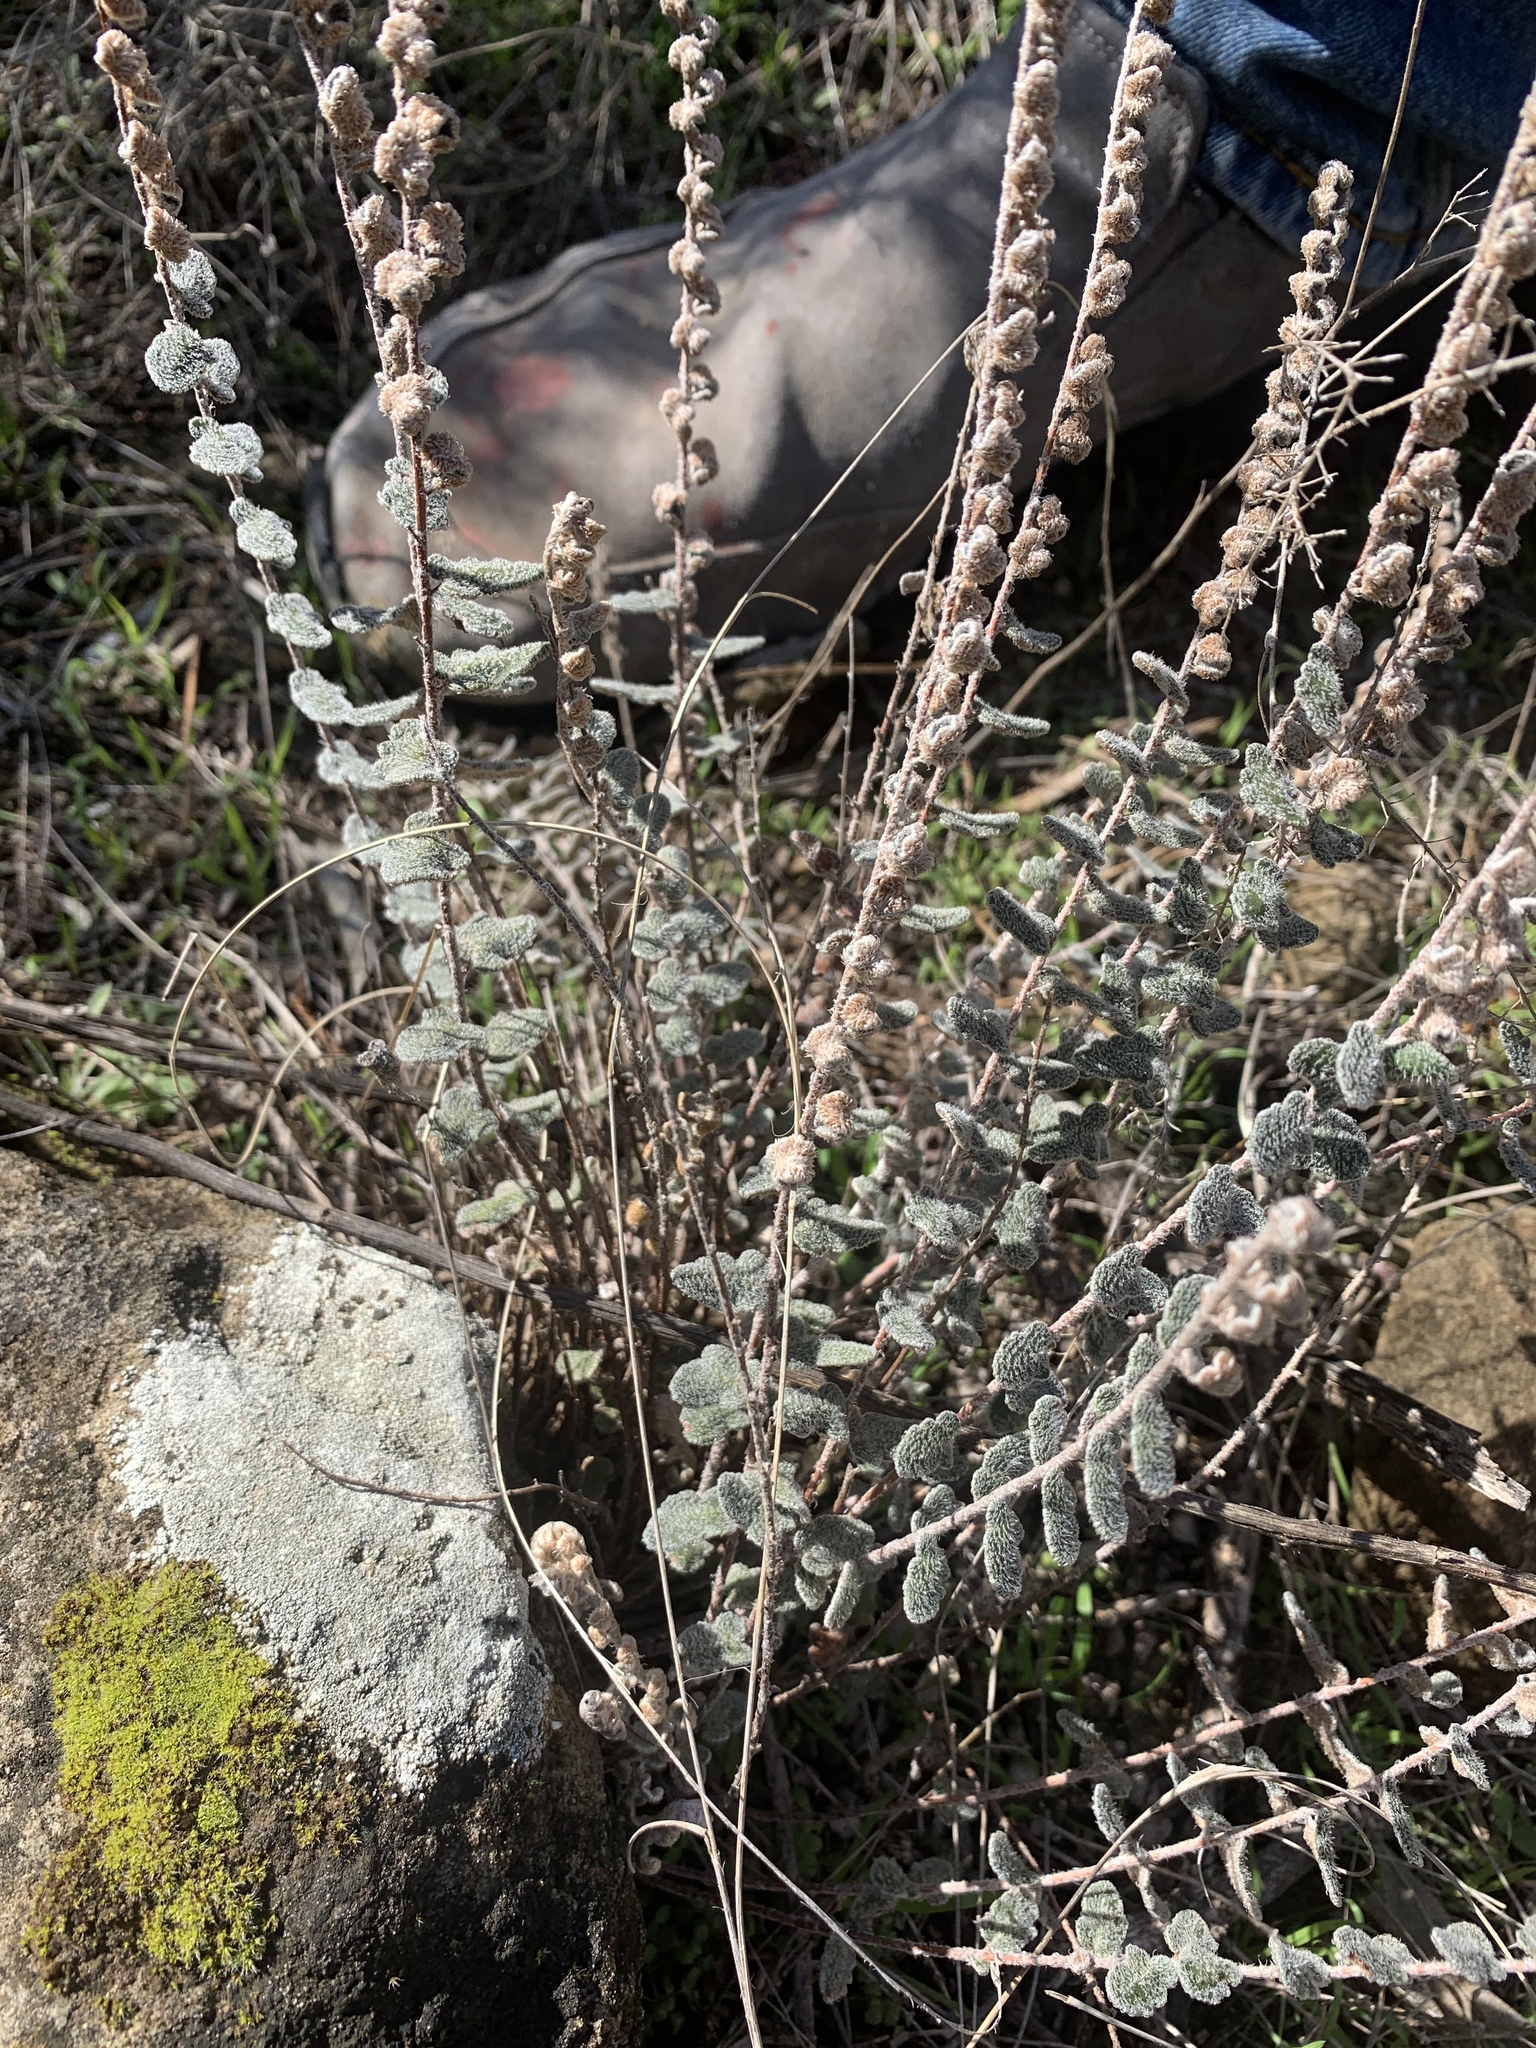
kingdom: Plantae
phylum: Tracheophyta
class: Polypodiopsida
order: Polypodiales
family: Pteridaceae
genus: Astrolepis
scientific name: Astrolepis integerrima
